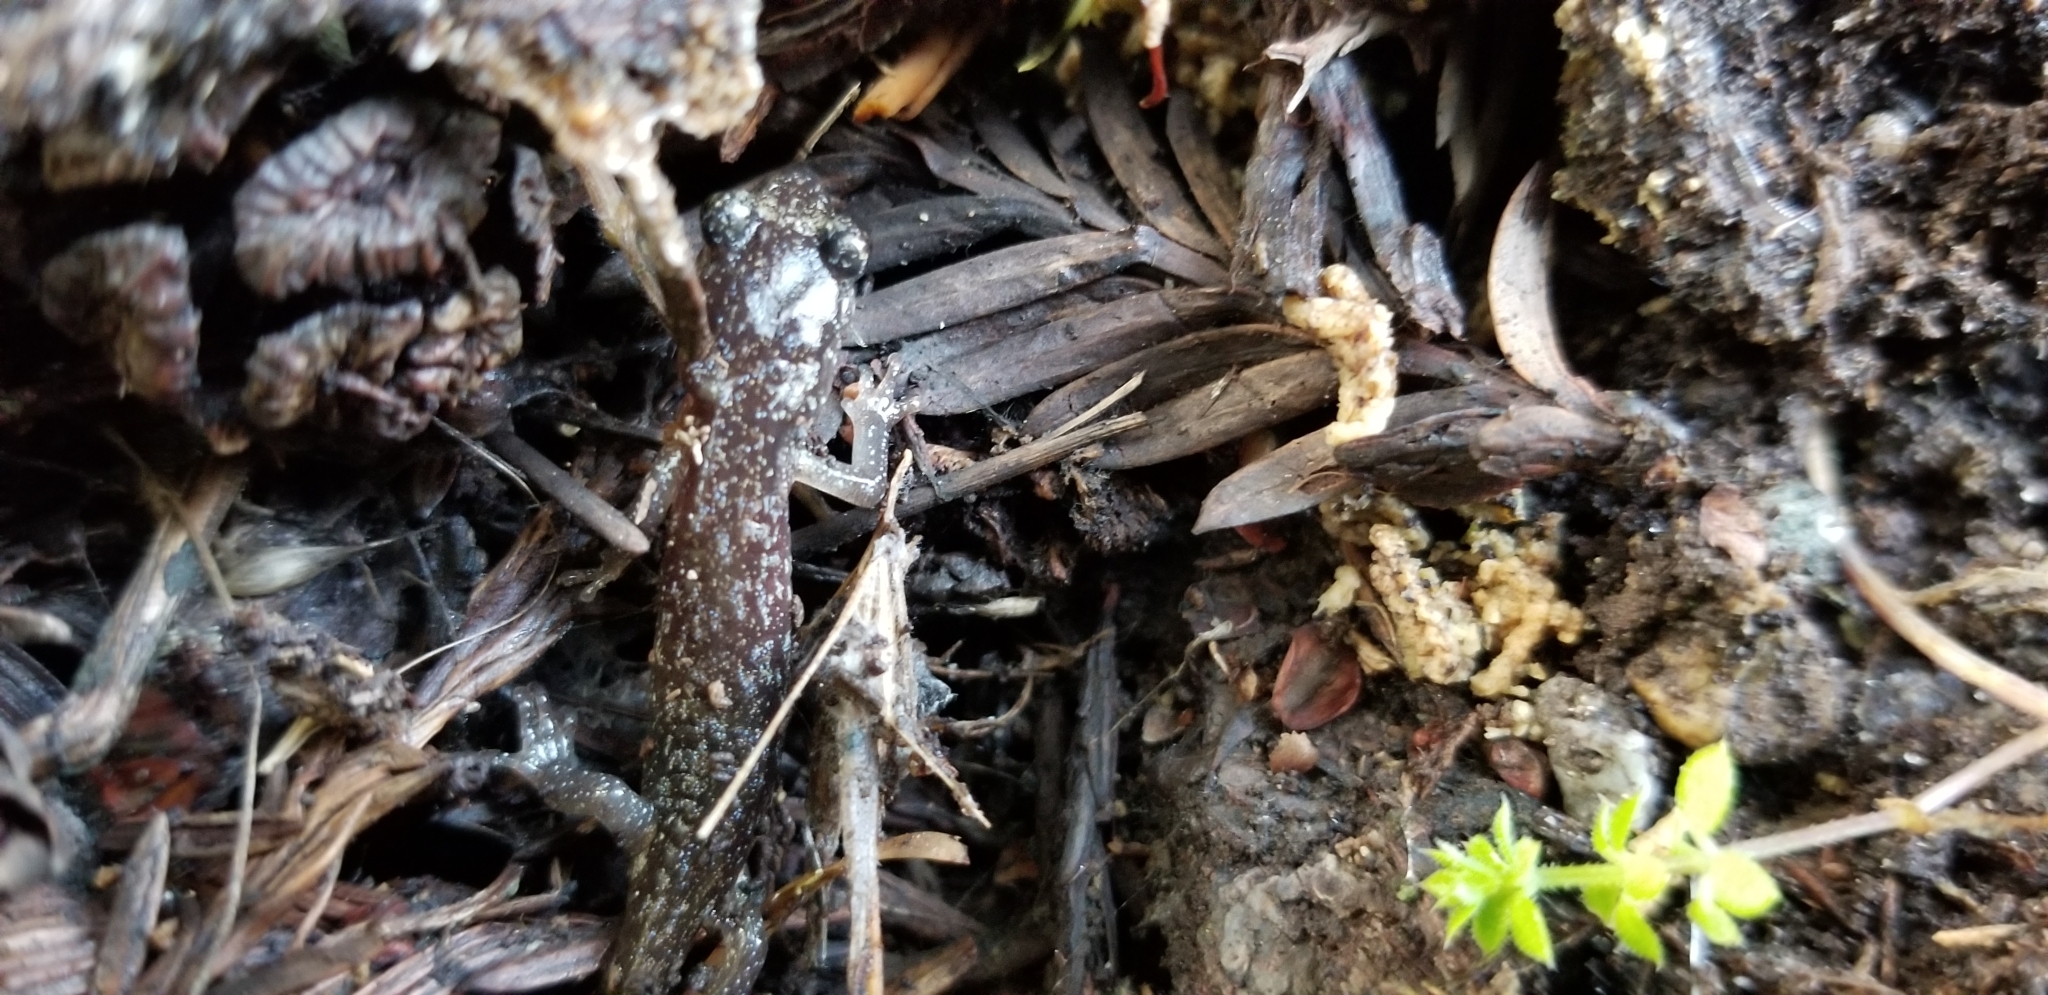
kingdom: Animalia
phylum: Chordata
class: Amphibia
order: Caudata
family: Plethodontidae
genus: Aneides
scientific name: Aneides lugubris
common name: Arboreal salamander
